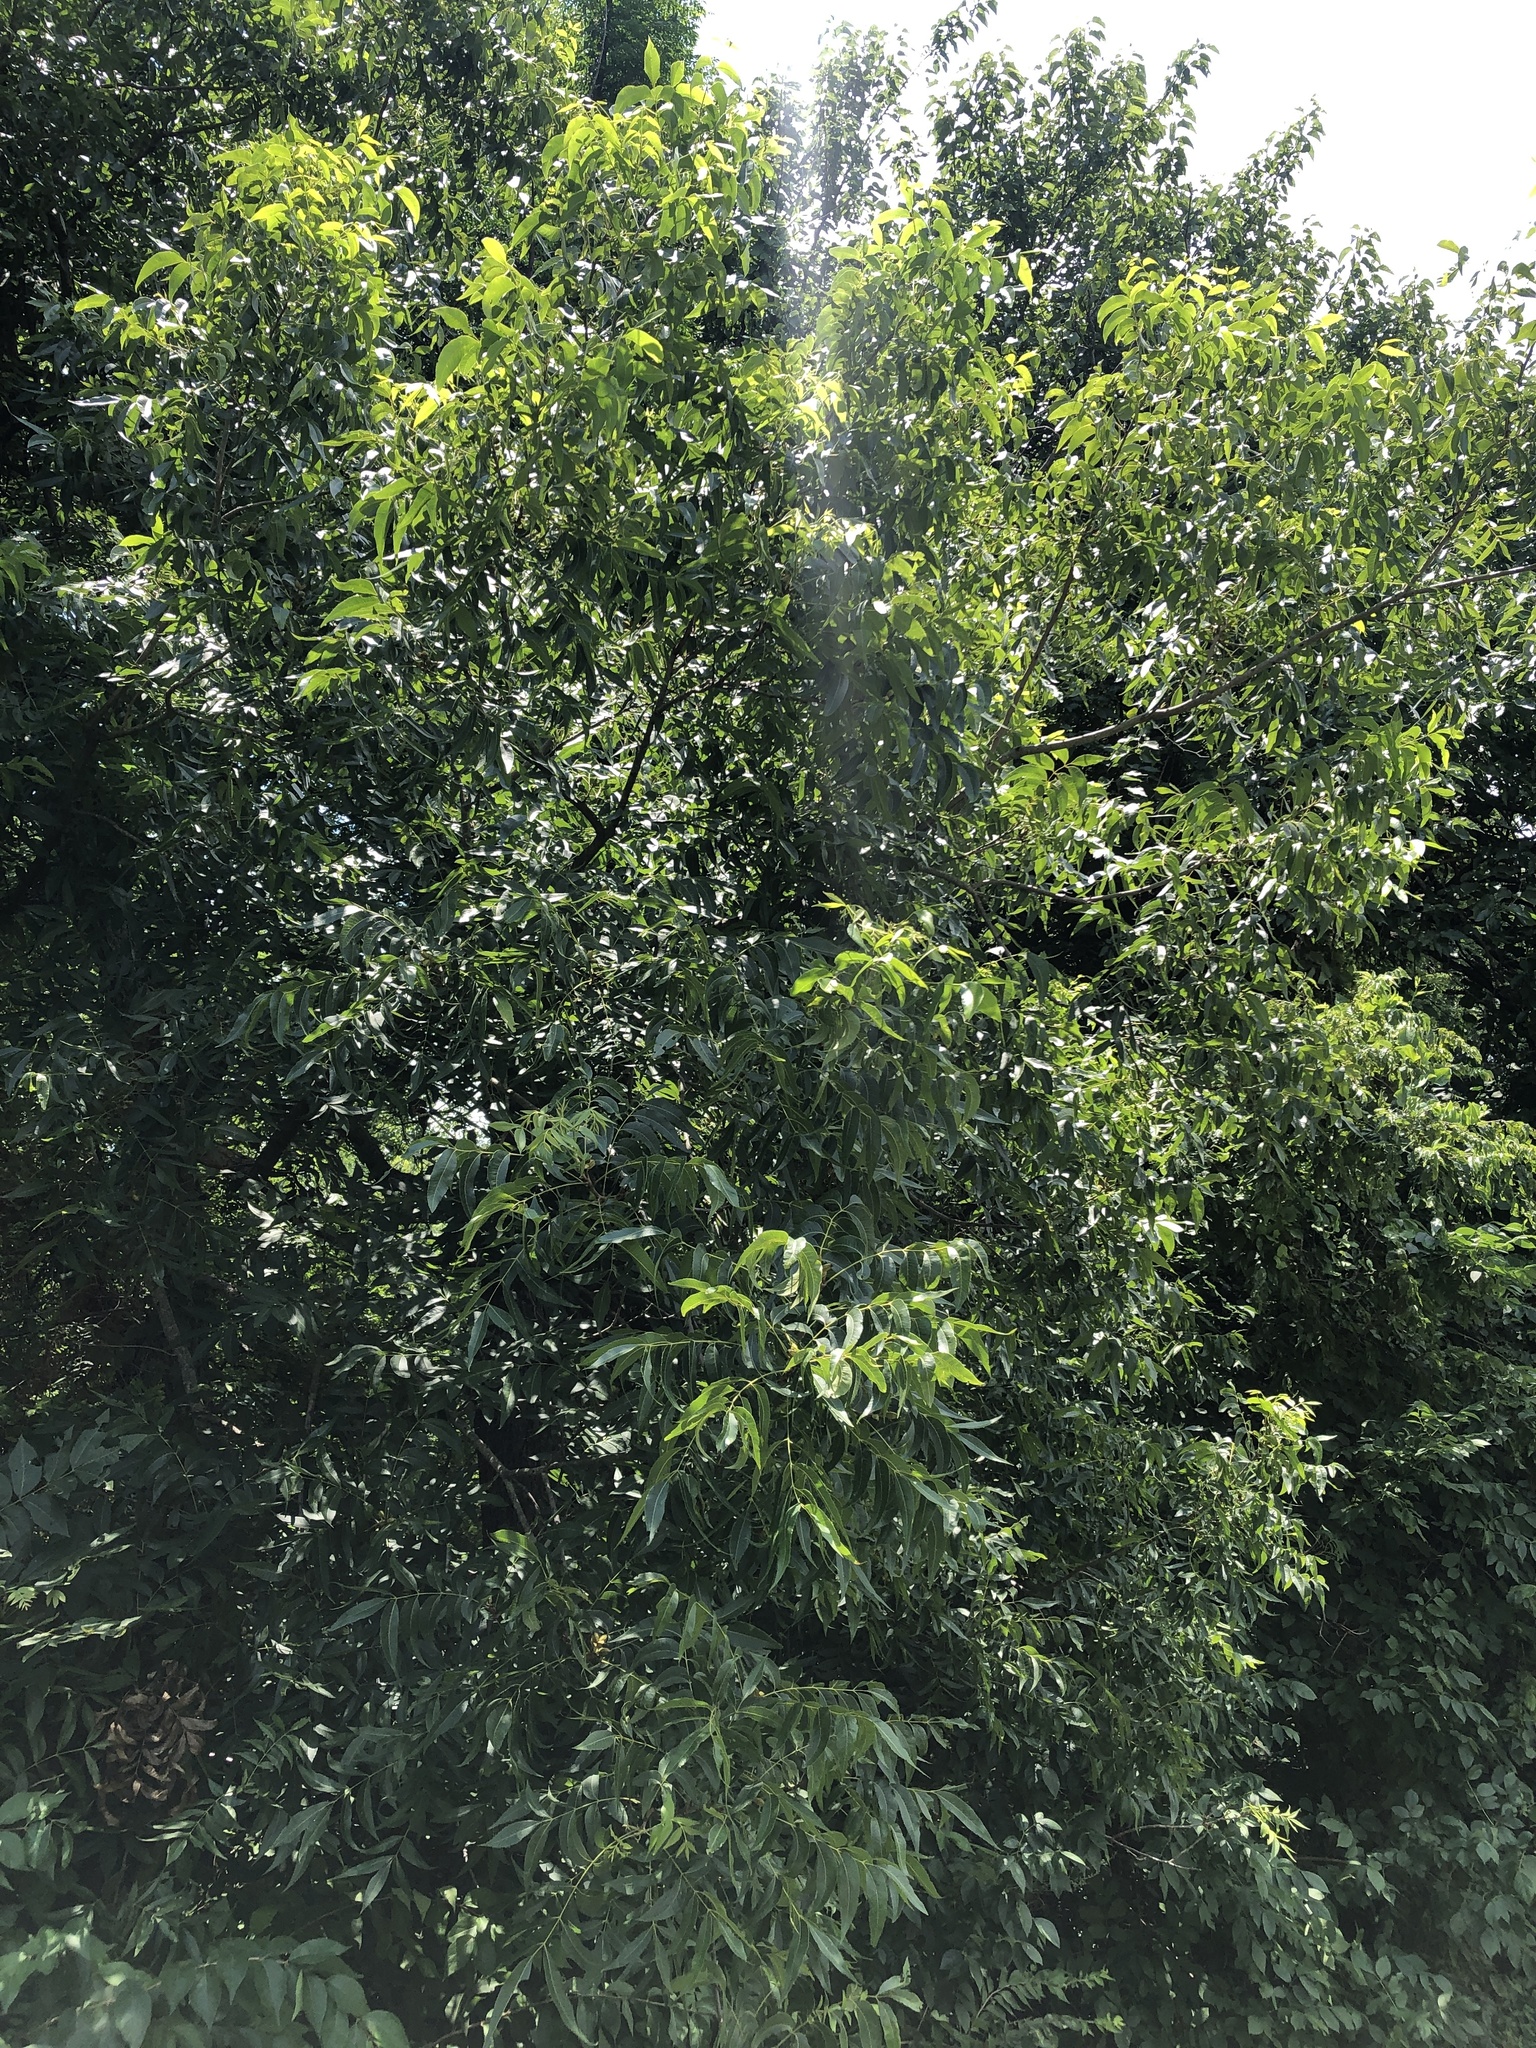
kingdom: Plantae
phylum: Tracheophyta
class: Magnoliopsida
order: Fagales
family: Juglandaceae
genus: Carya
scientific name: Carya illinoinensis
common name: Pecan
